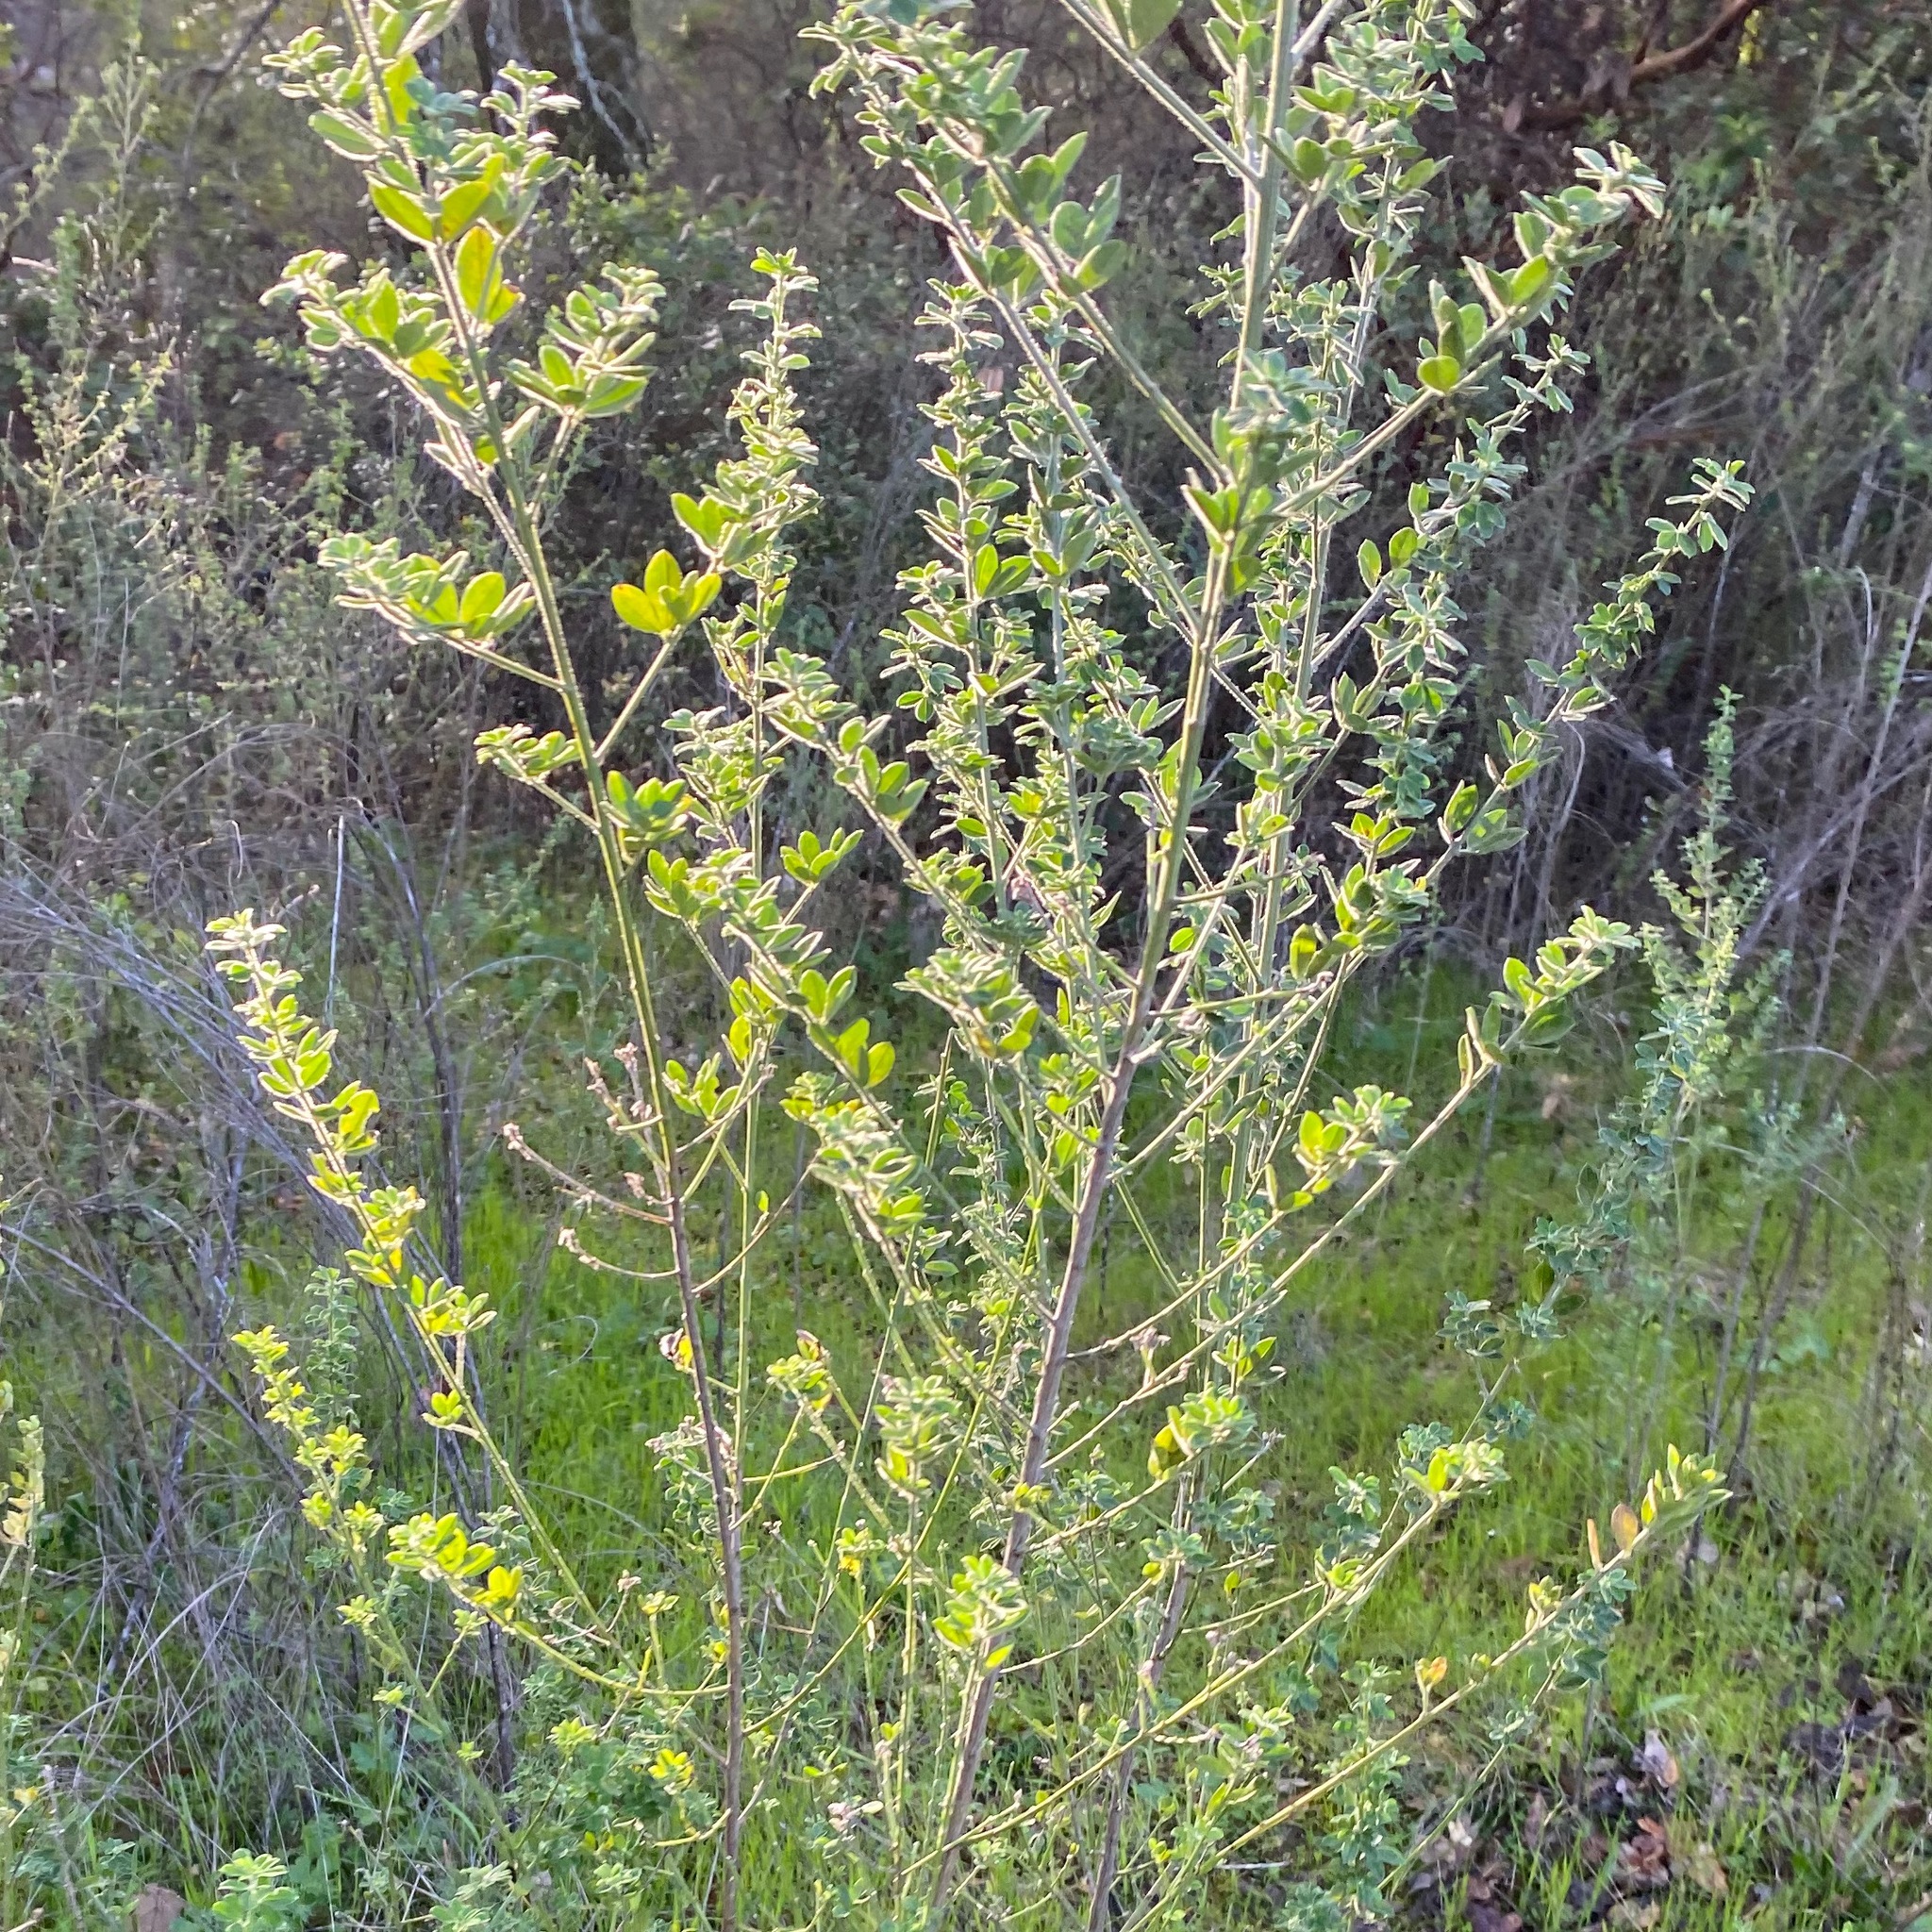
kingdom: Plantae
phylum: Tracheophyta
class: Magnoliopsida
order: Fabales
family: Fabaceae
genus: Genista
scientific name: Genista monspessulana
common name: Montpellier broom
